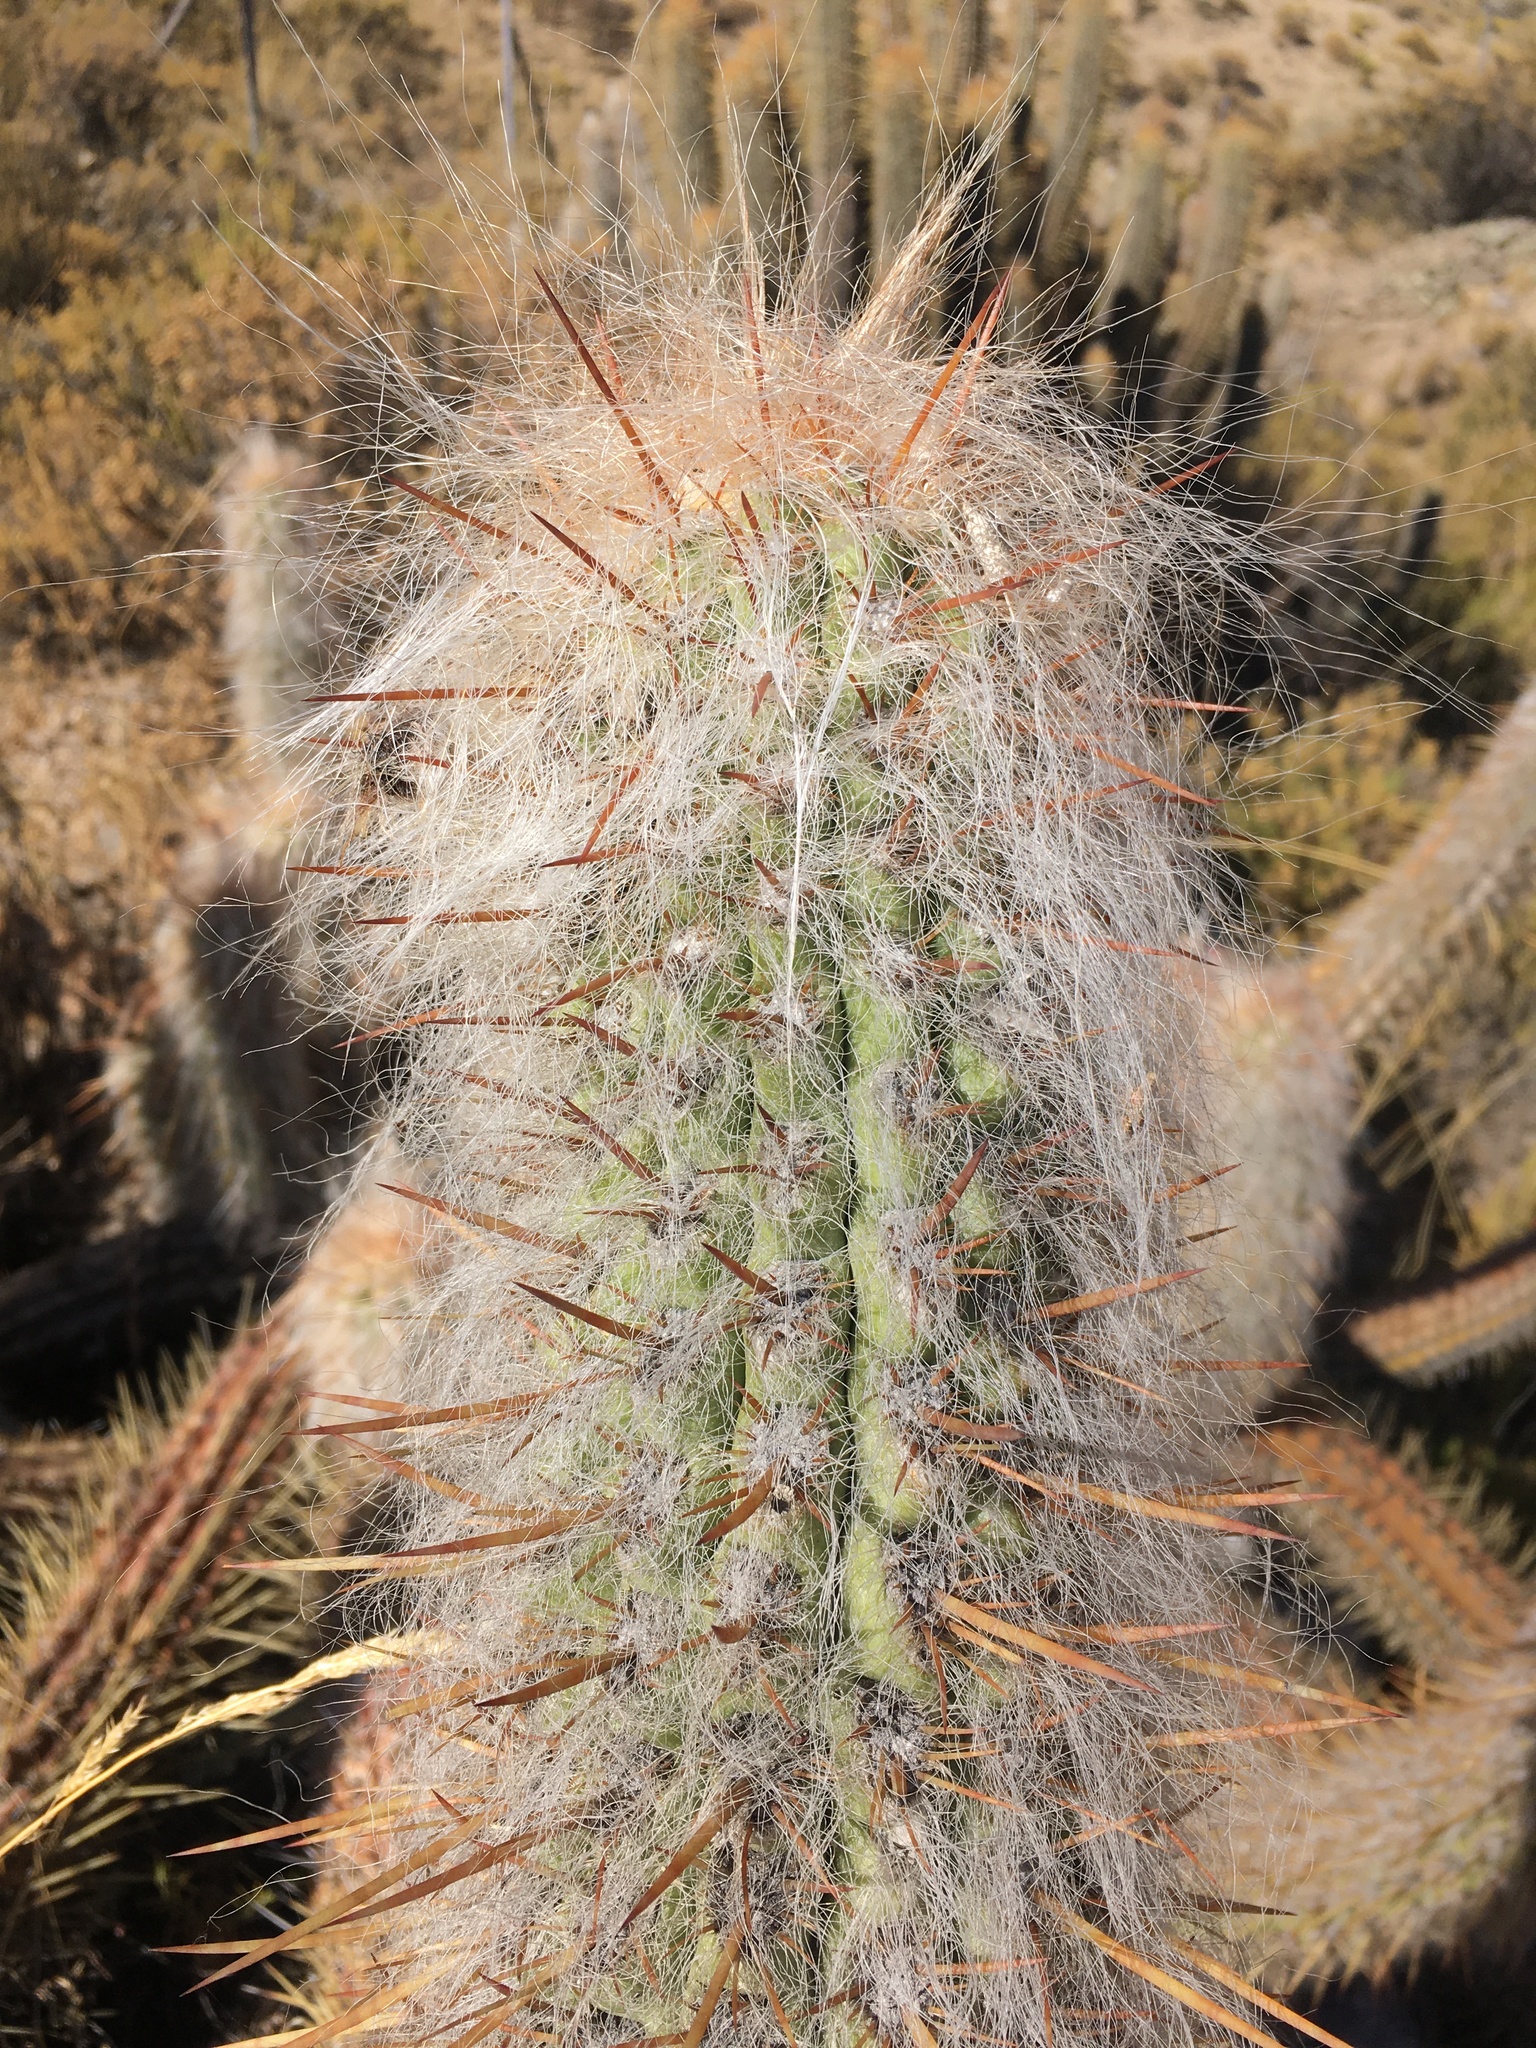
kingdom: Plantae
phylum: Tracheophyta
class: Magnoliopsida
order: Caryophyllales
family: Cactaceae
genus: Oreocereus
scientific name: Oreocereus leucotrichus
